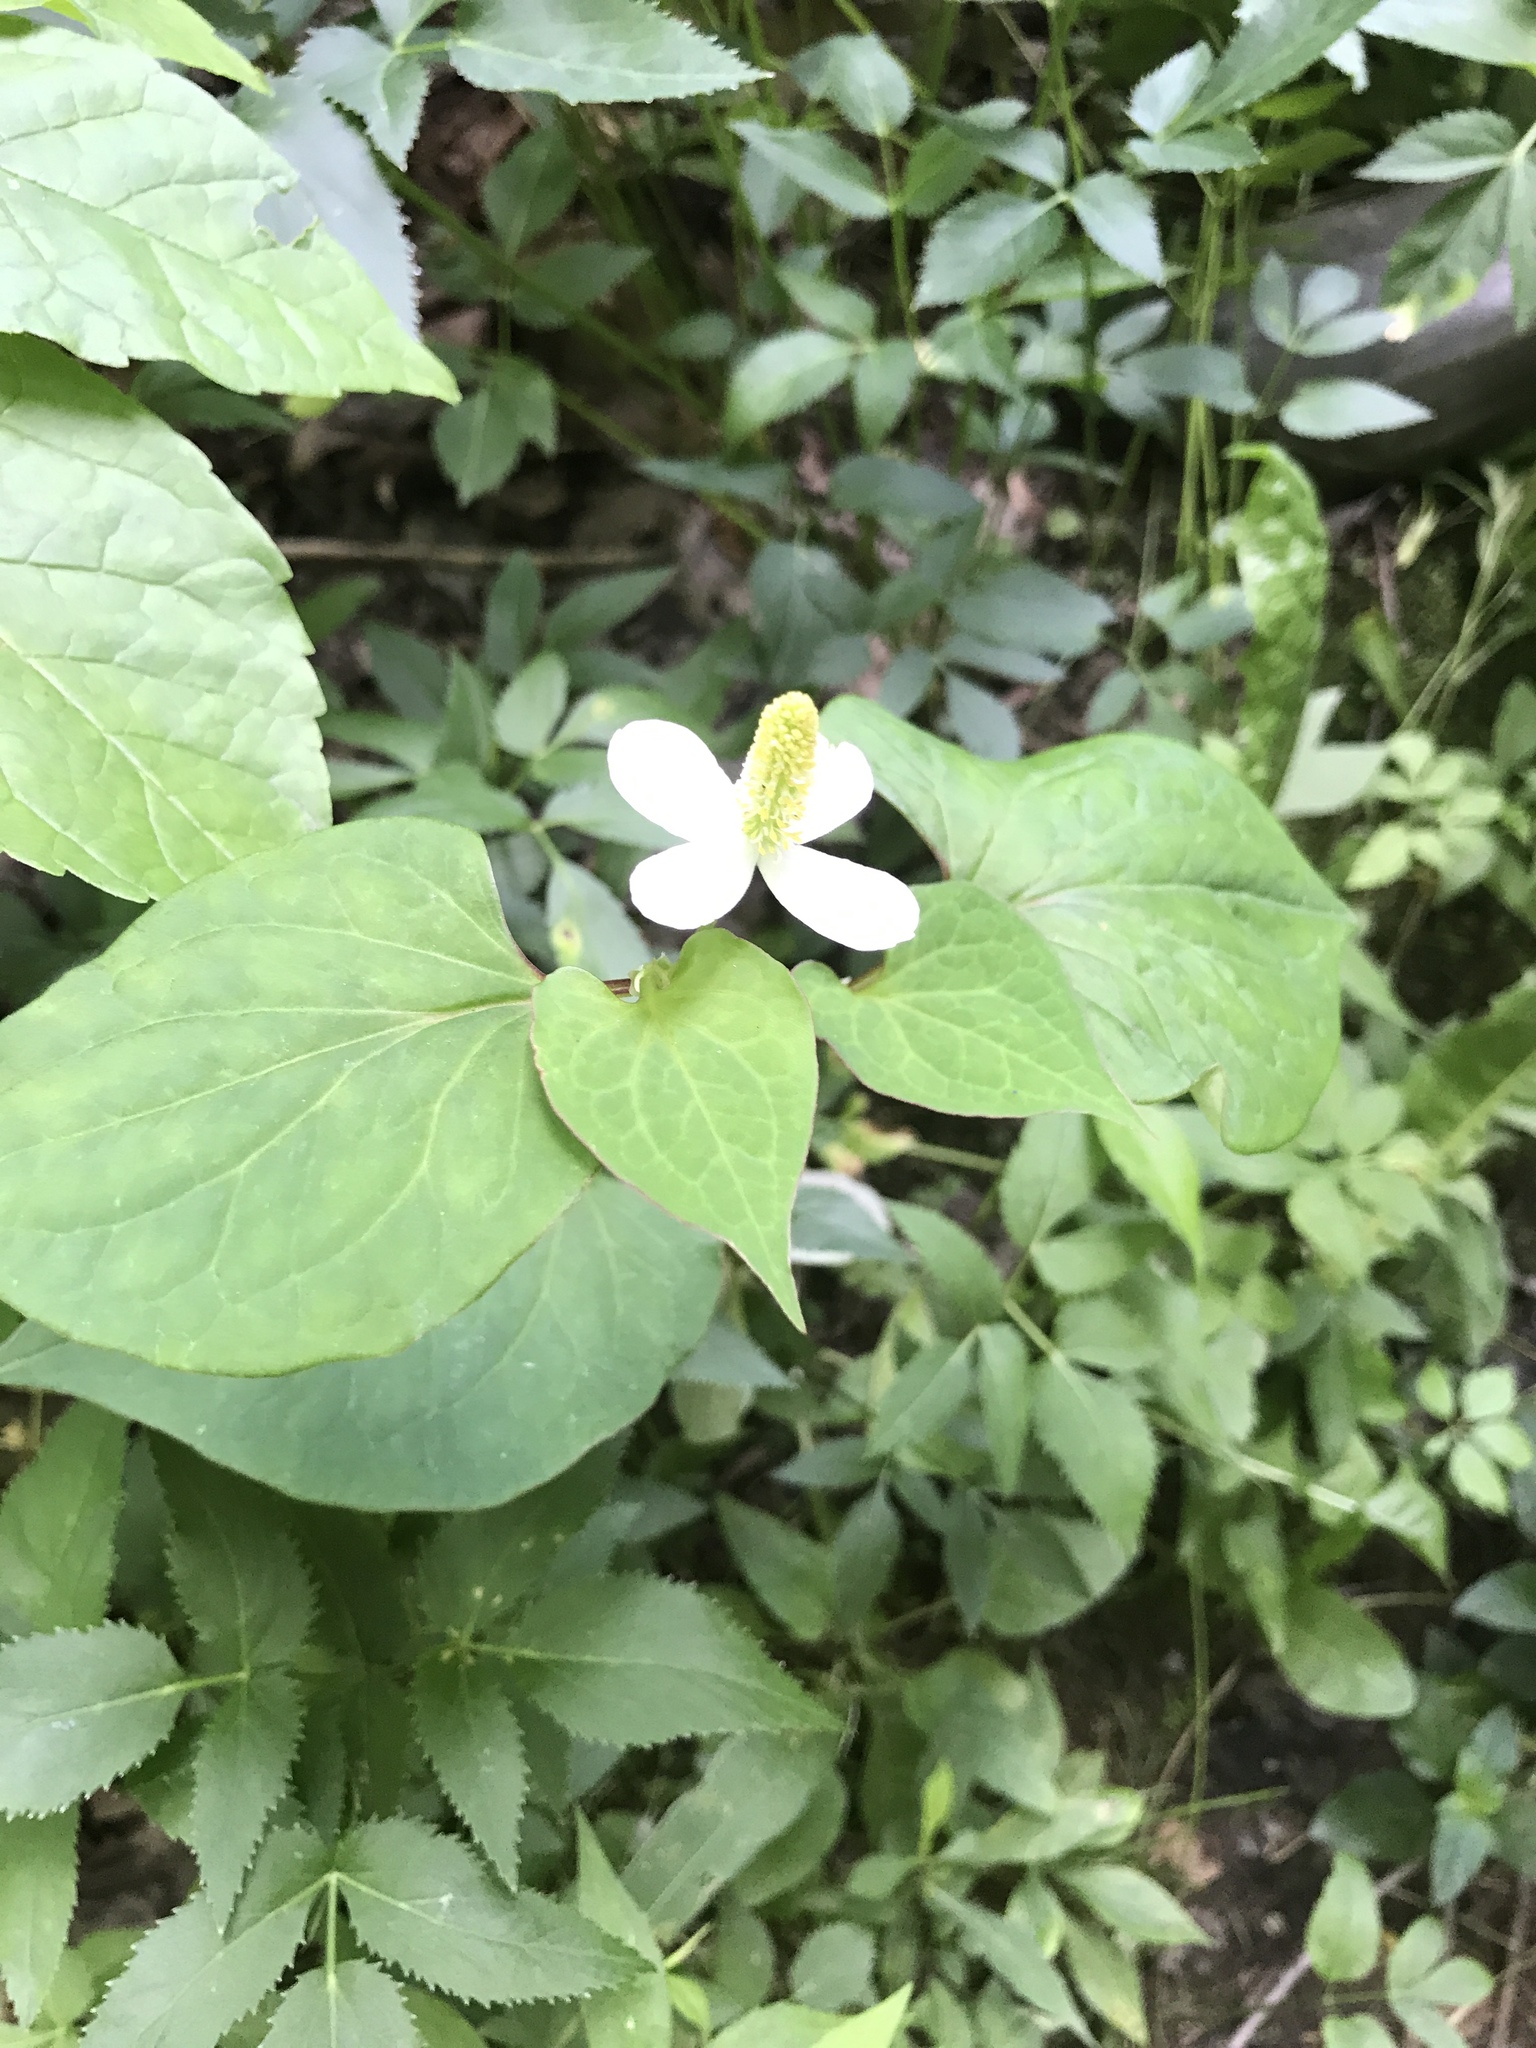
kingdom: Plantae
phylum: Tracheophyta
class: Magnoliopsida
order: Piperales
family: Saururaceae
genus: Houttuynia
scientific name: Houttuynia cordata
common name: Chameleon
